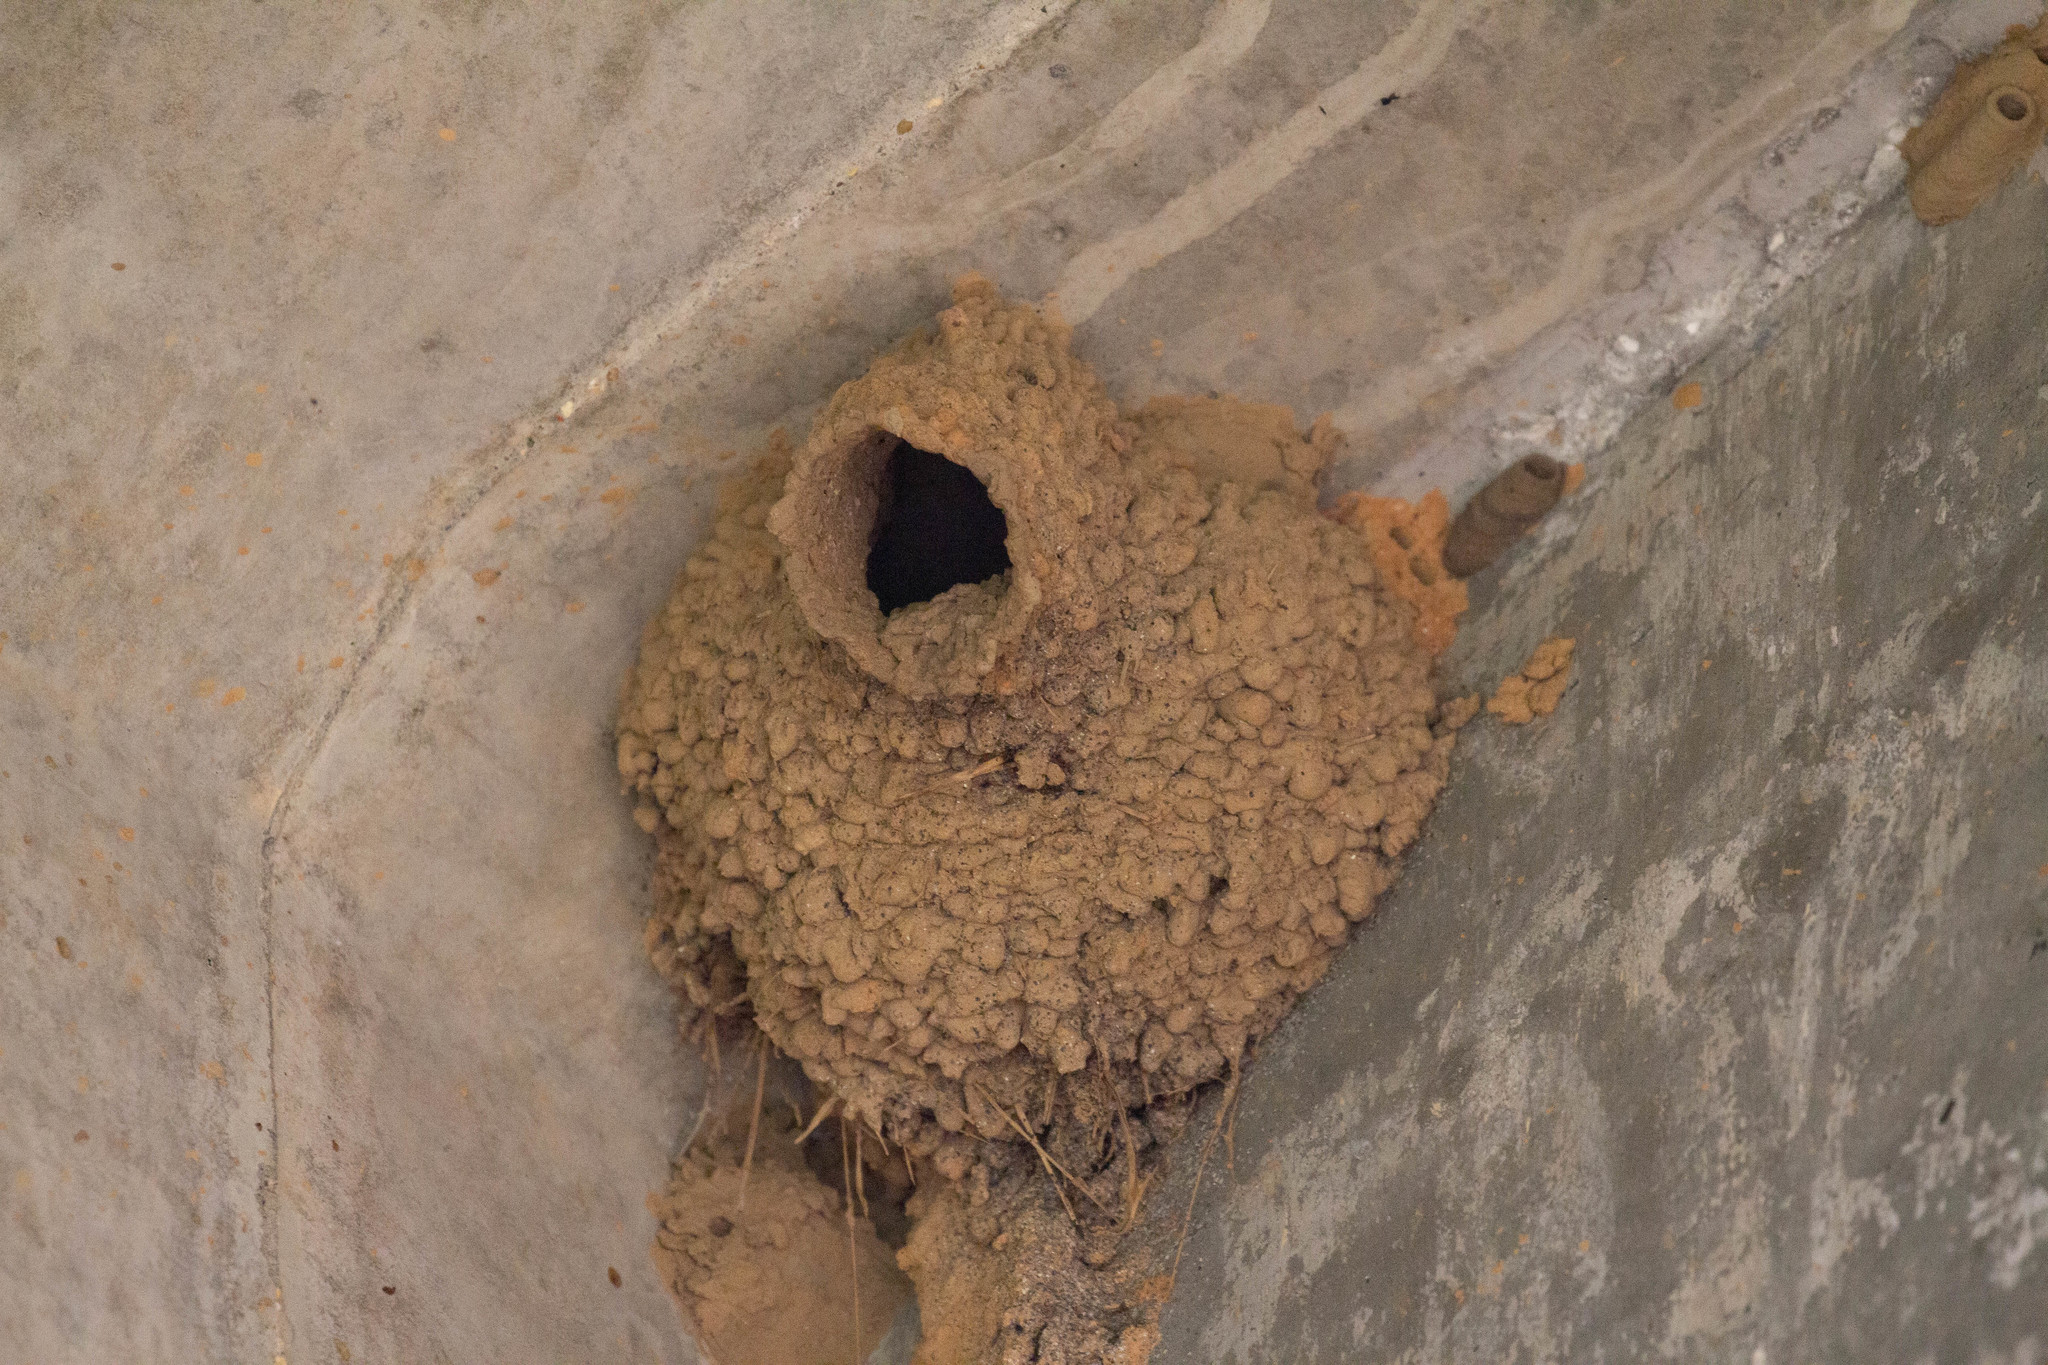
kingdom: Animalia
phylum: Chordata
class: Aves
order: Passeriformes
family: Hirundinidae
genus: Petrochelidon
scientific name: Petrochelidon pyrrhonota
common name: American cliff swallow
